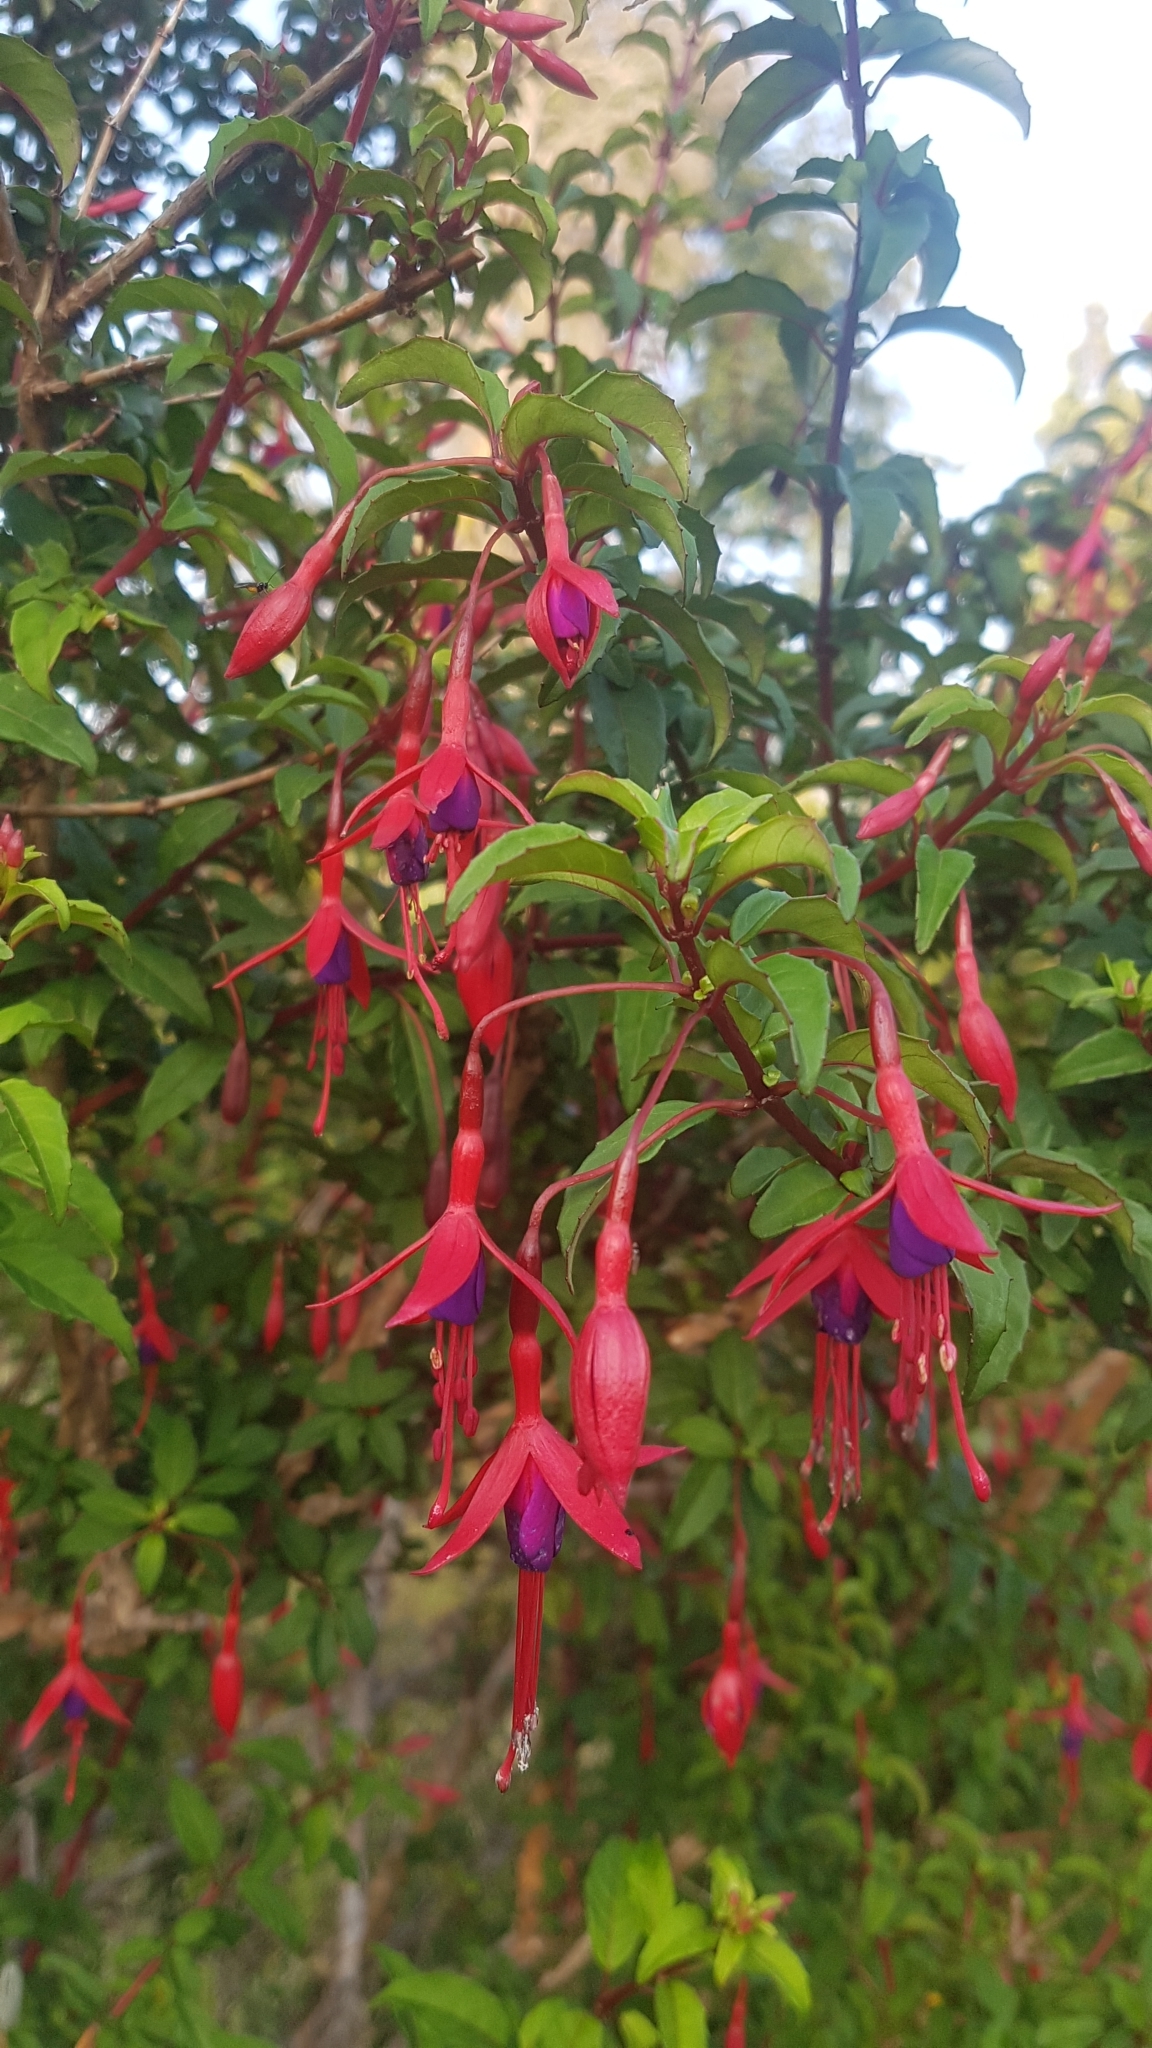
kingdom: Plantae
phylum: Tracheophyta
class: Magnoliopsida
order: Myrtales
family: Onagraceae
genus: Fuchsia
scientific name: Fuchsia magellanica
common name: Hardy fuchsia
